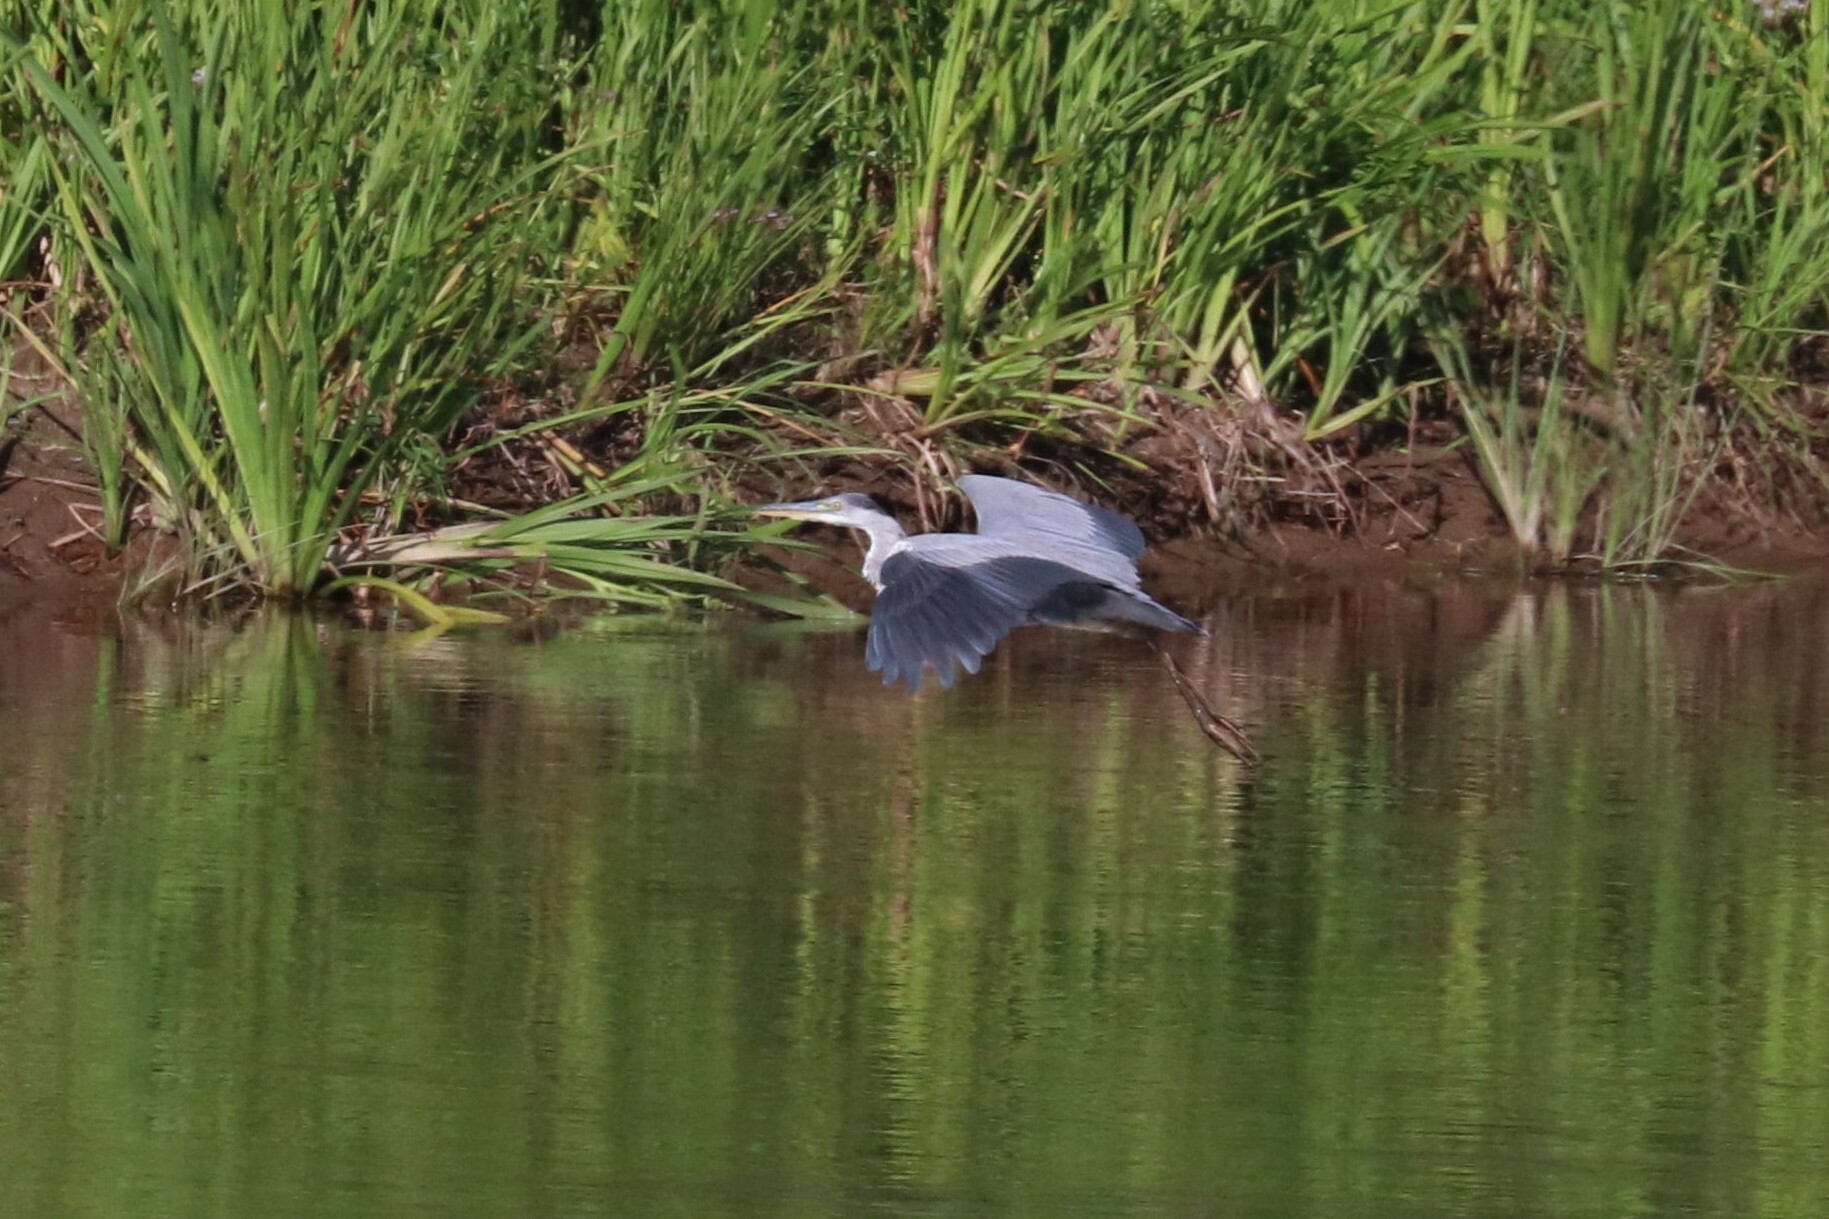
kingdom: Animalia
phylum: Chordata
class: Aves
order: Pelecaniformes
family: Ardeidae
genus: Ardea
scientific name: Ardea cinerea
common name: Grey heron
